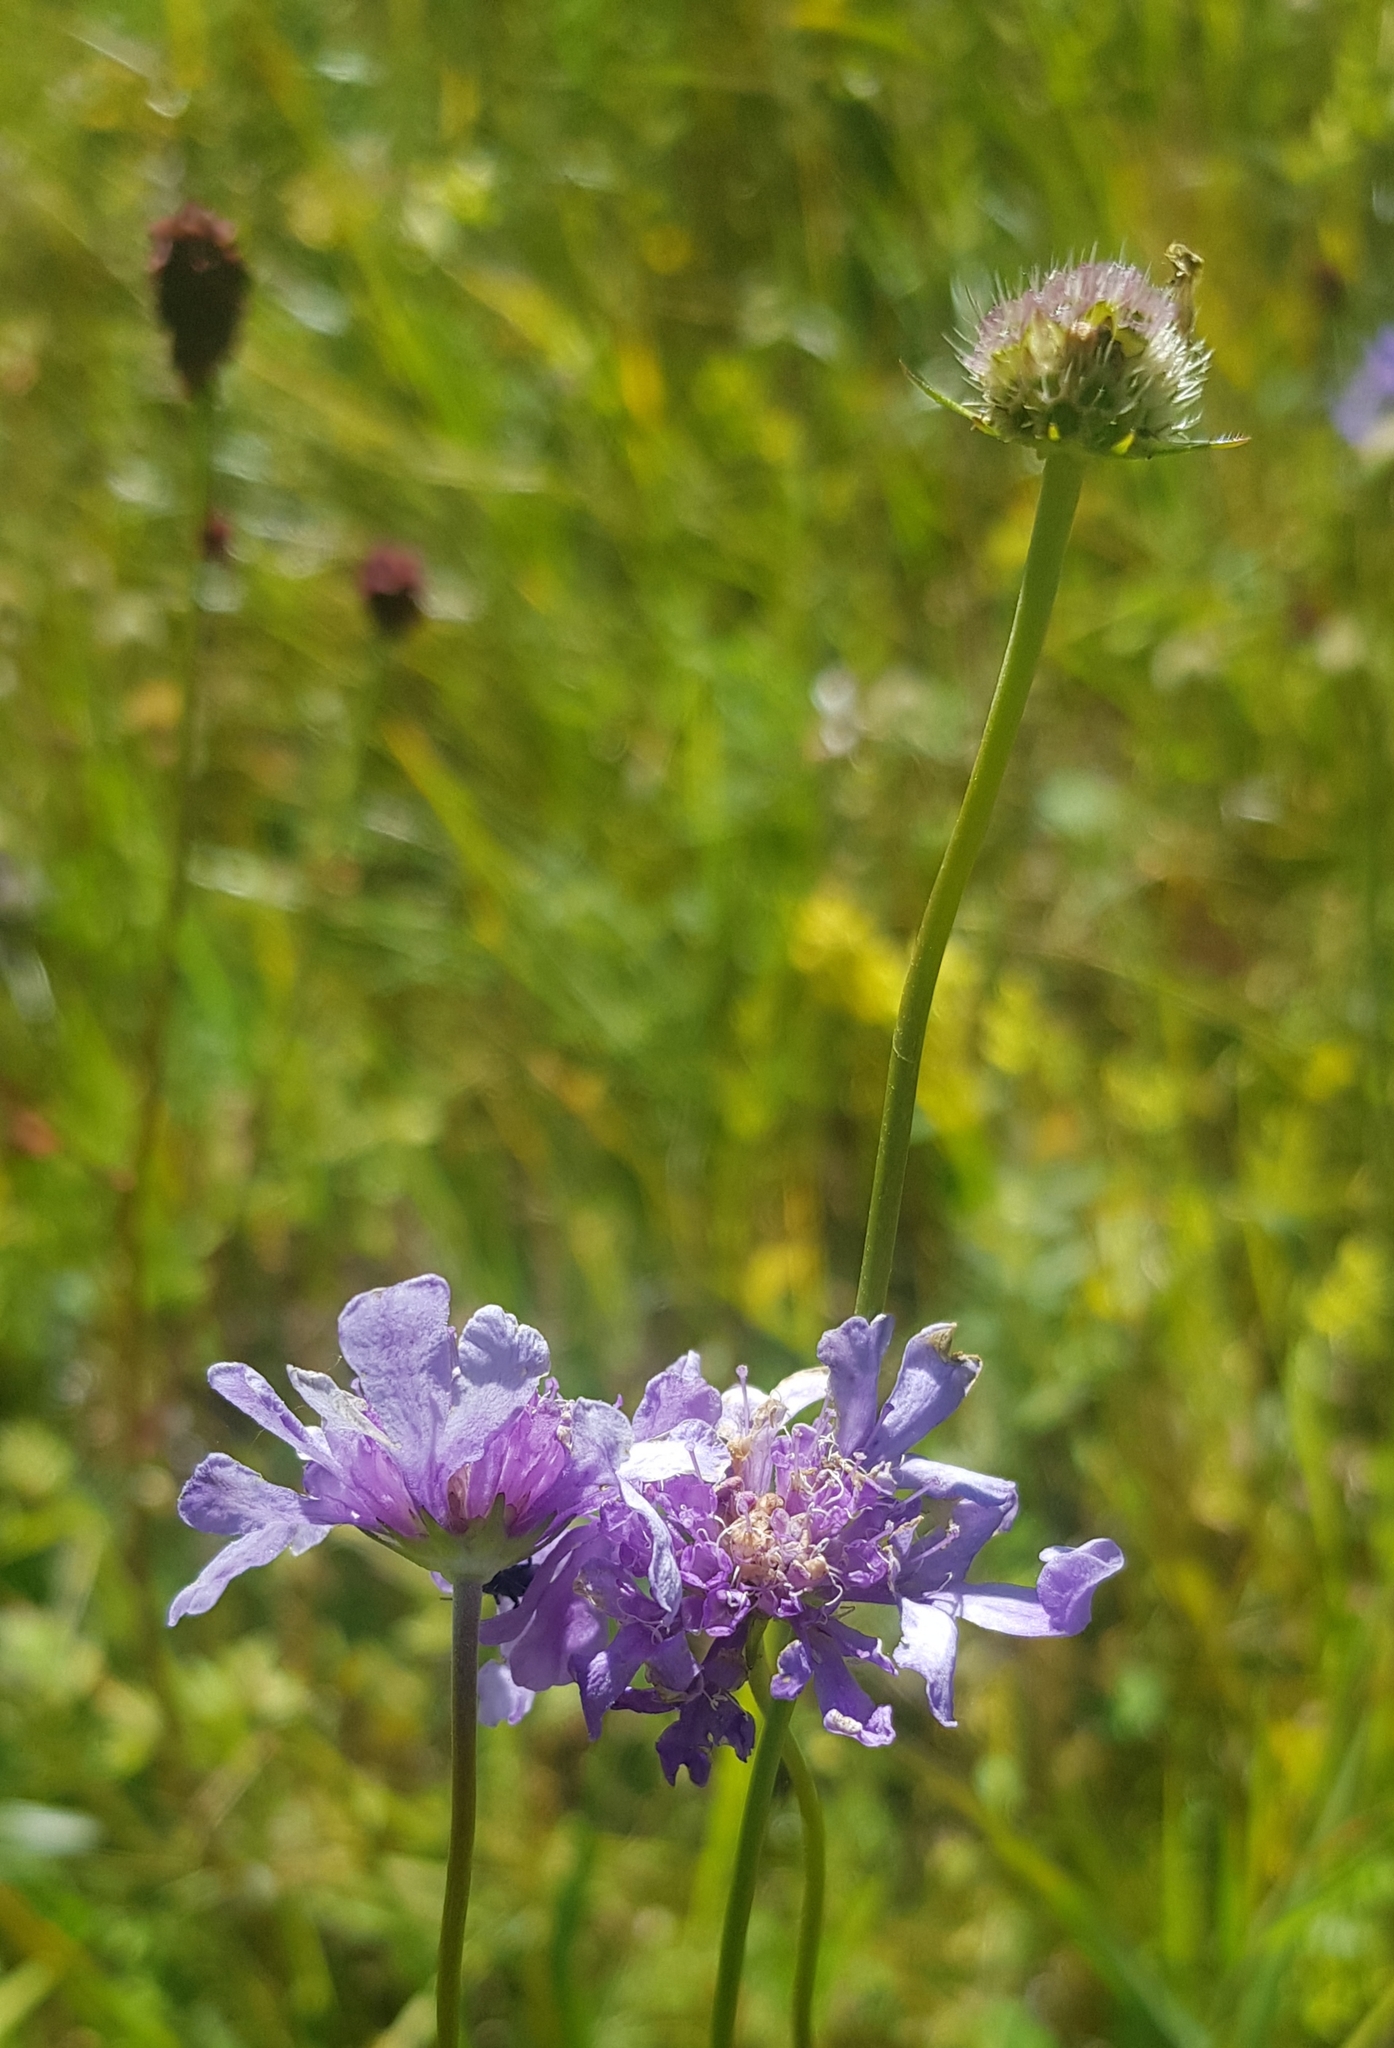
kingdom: Plantae
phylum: Tracheophyta
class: Magnoliopsida
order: Dipsacales
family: Caprifoliaceae
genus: Scabiosa
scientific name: Scabiosa comosa
